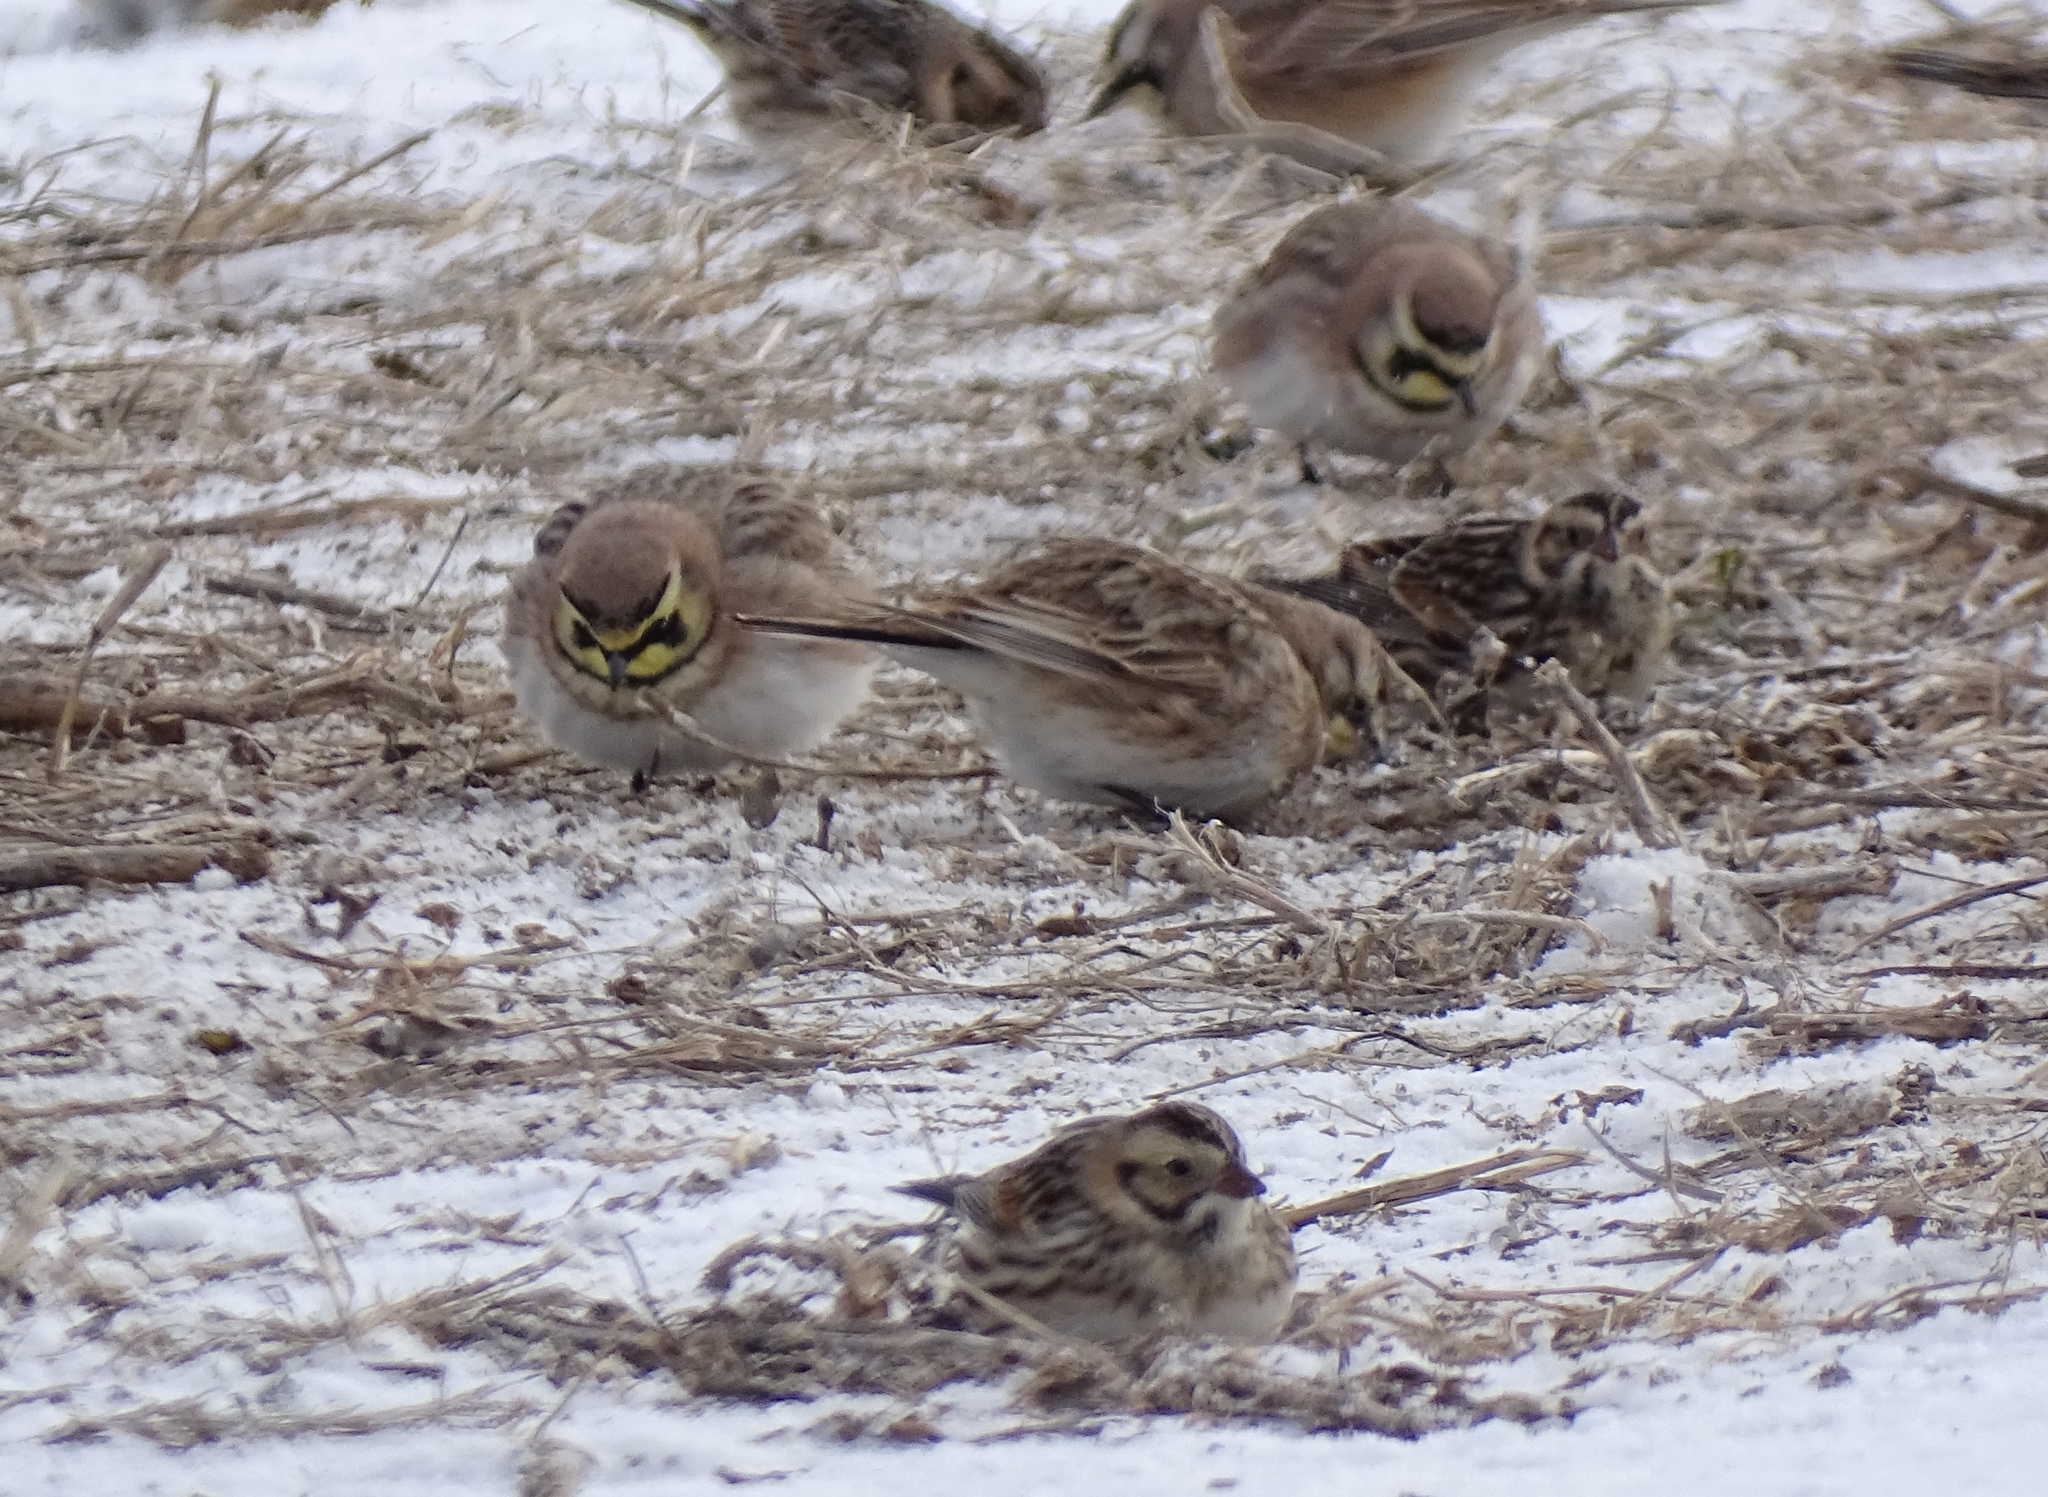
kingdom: Animalia
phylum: Chordata
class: Aves
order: Passeriformes
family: Calcariidae
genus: Calcarius
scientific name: Calcarius lapponicus
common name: Lapland longspur
